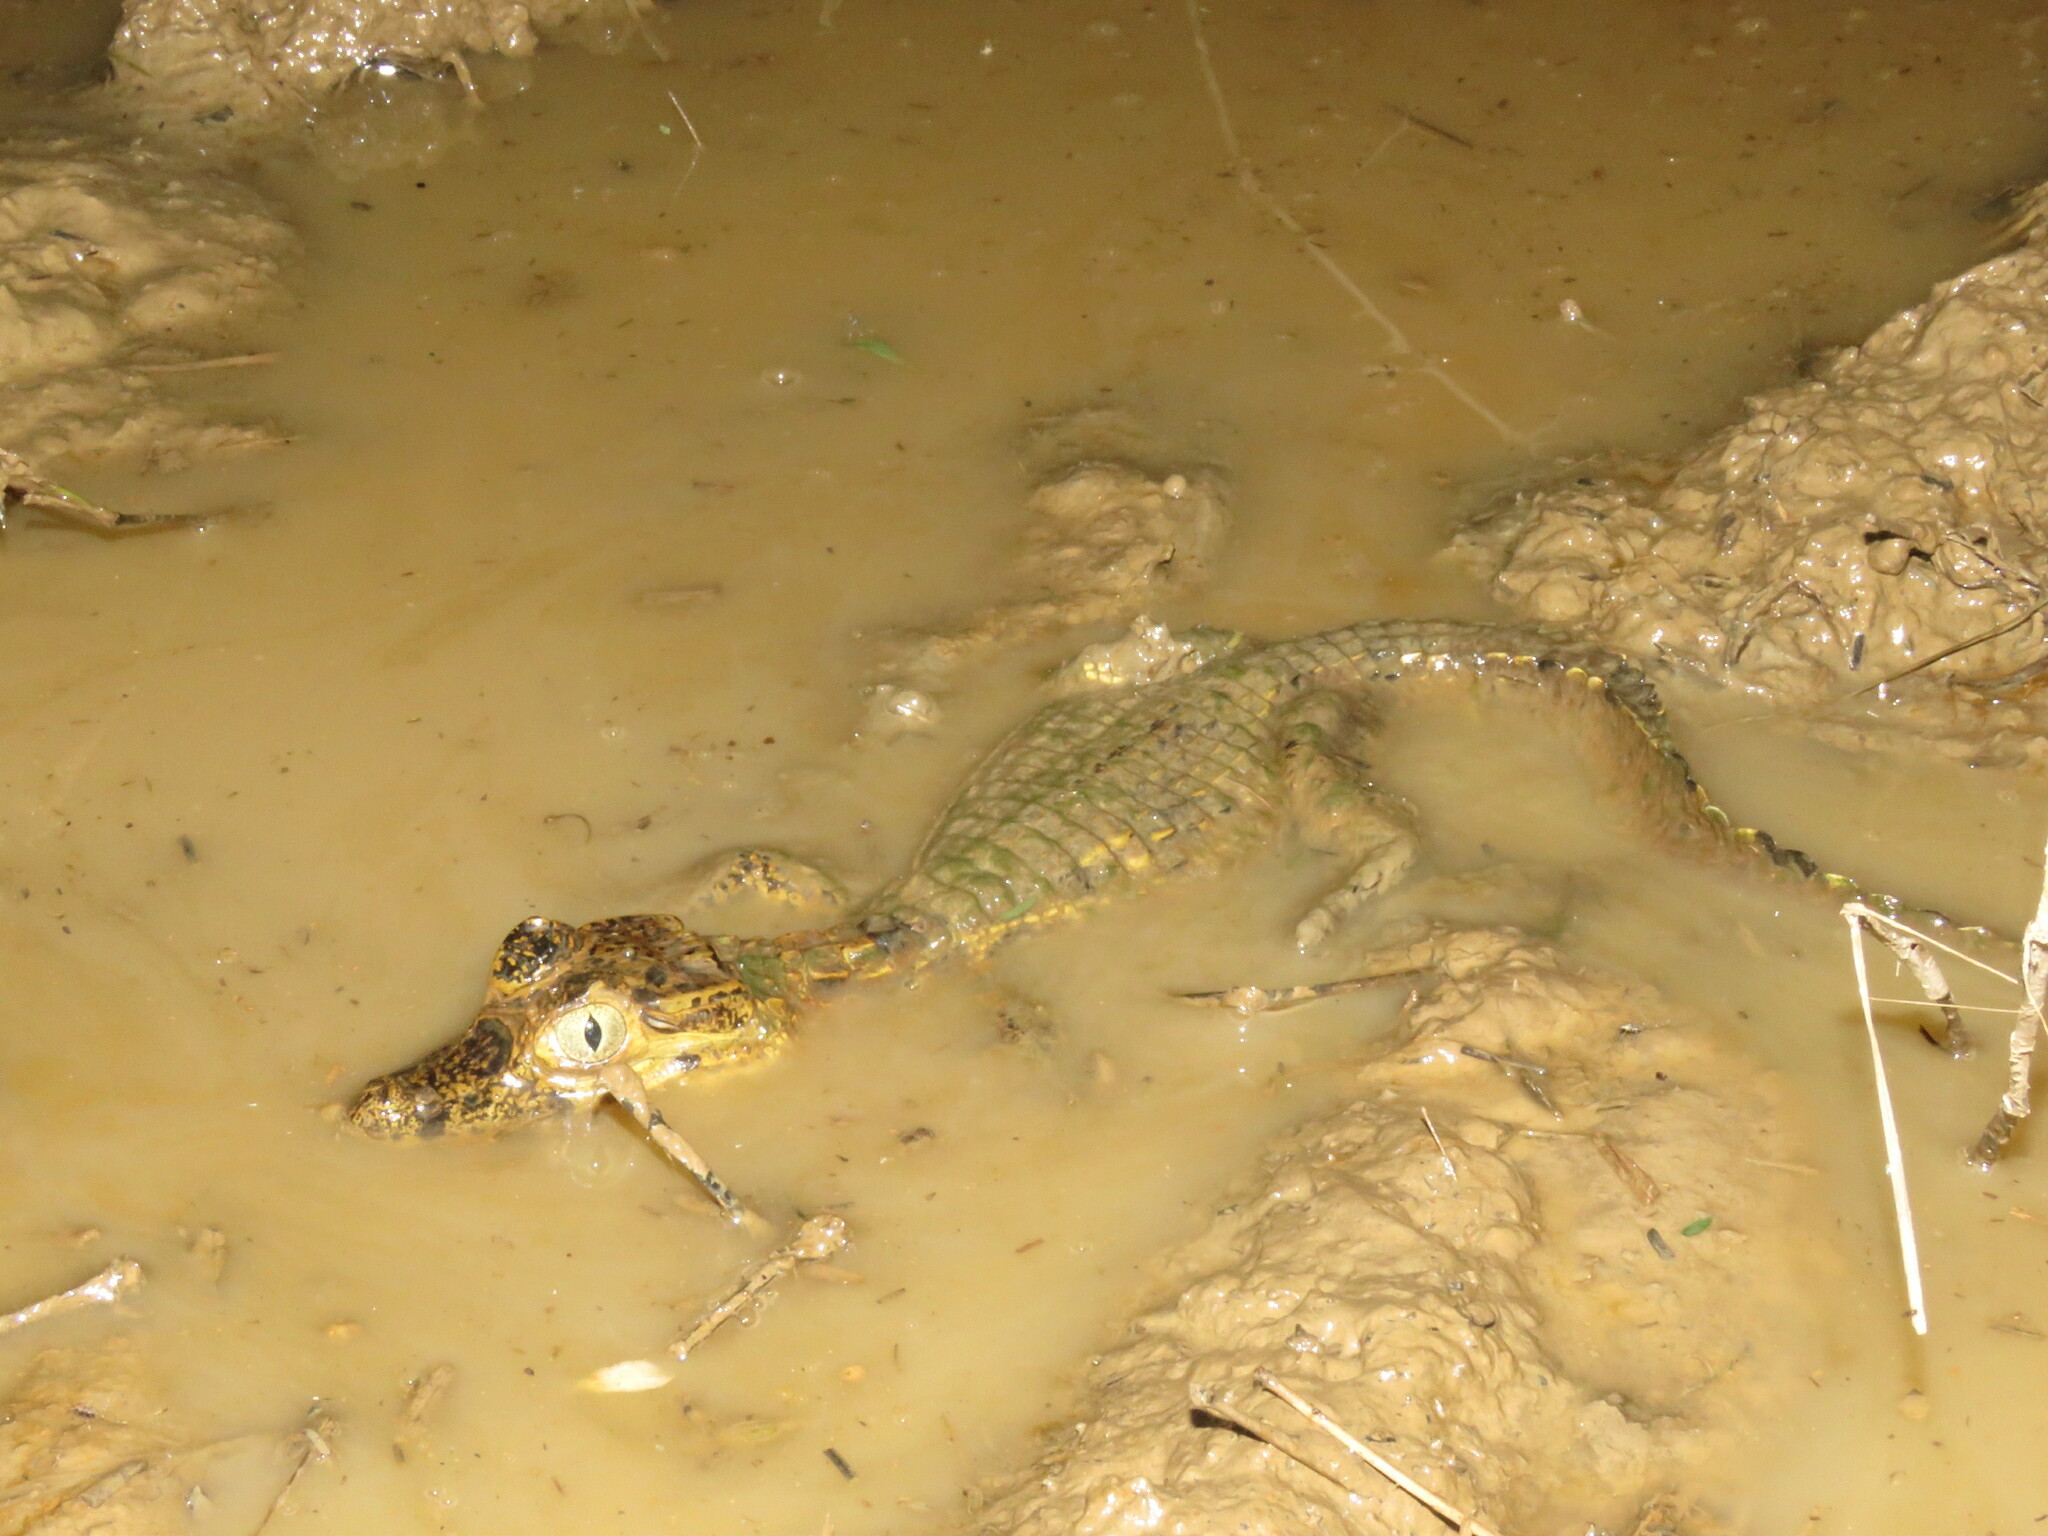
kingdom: Animalia
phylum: Chordata
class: Crocodylia
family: Alligatoridae
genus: Caiman
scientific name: Caiman yacare
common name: Yacare caiman
